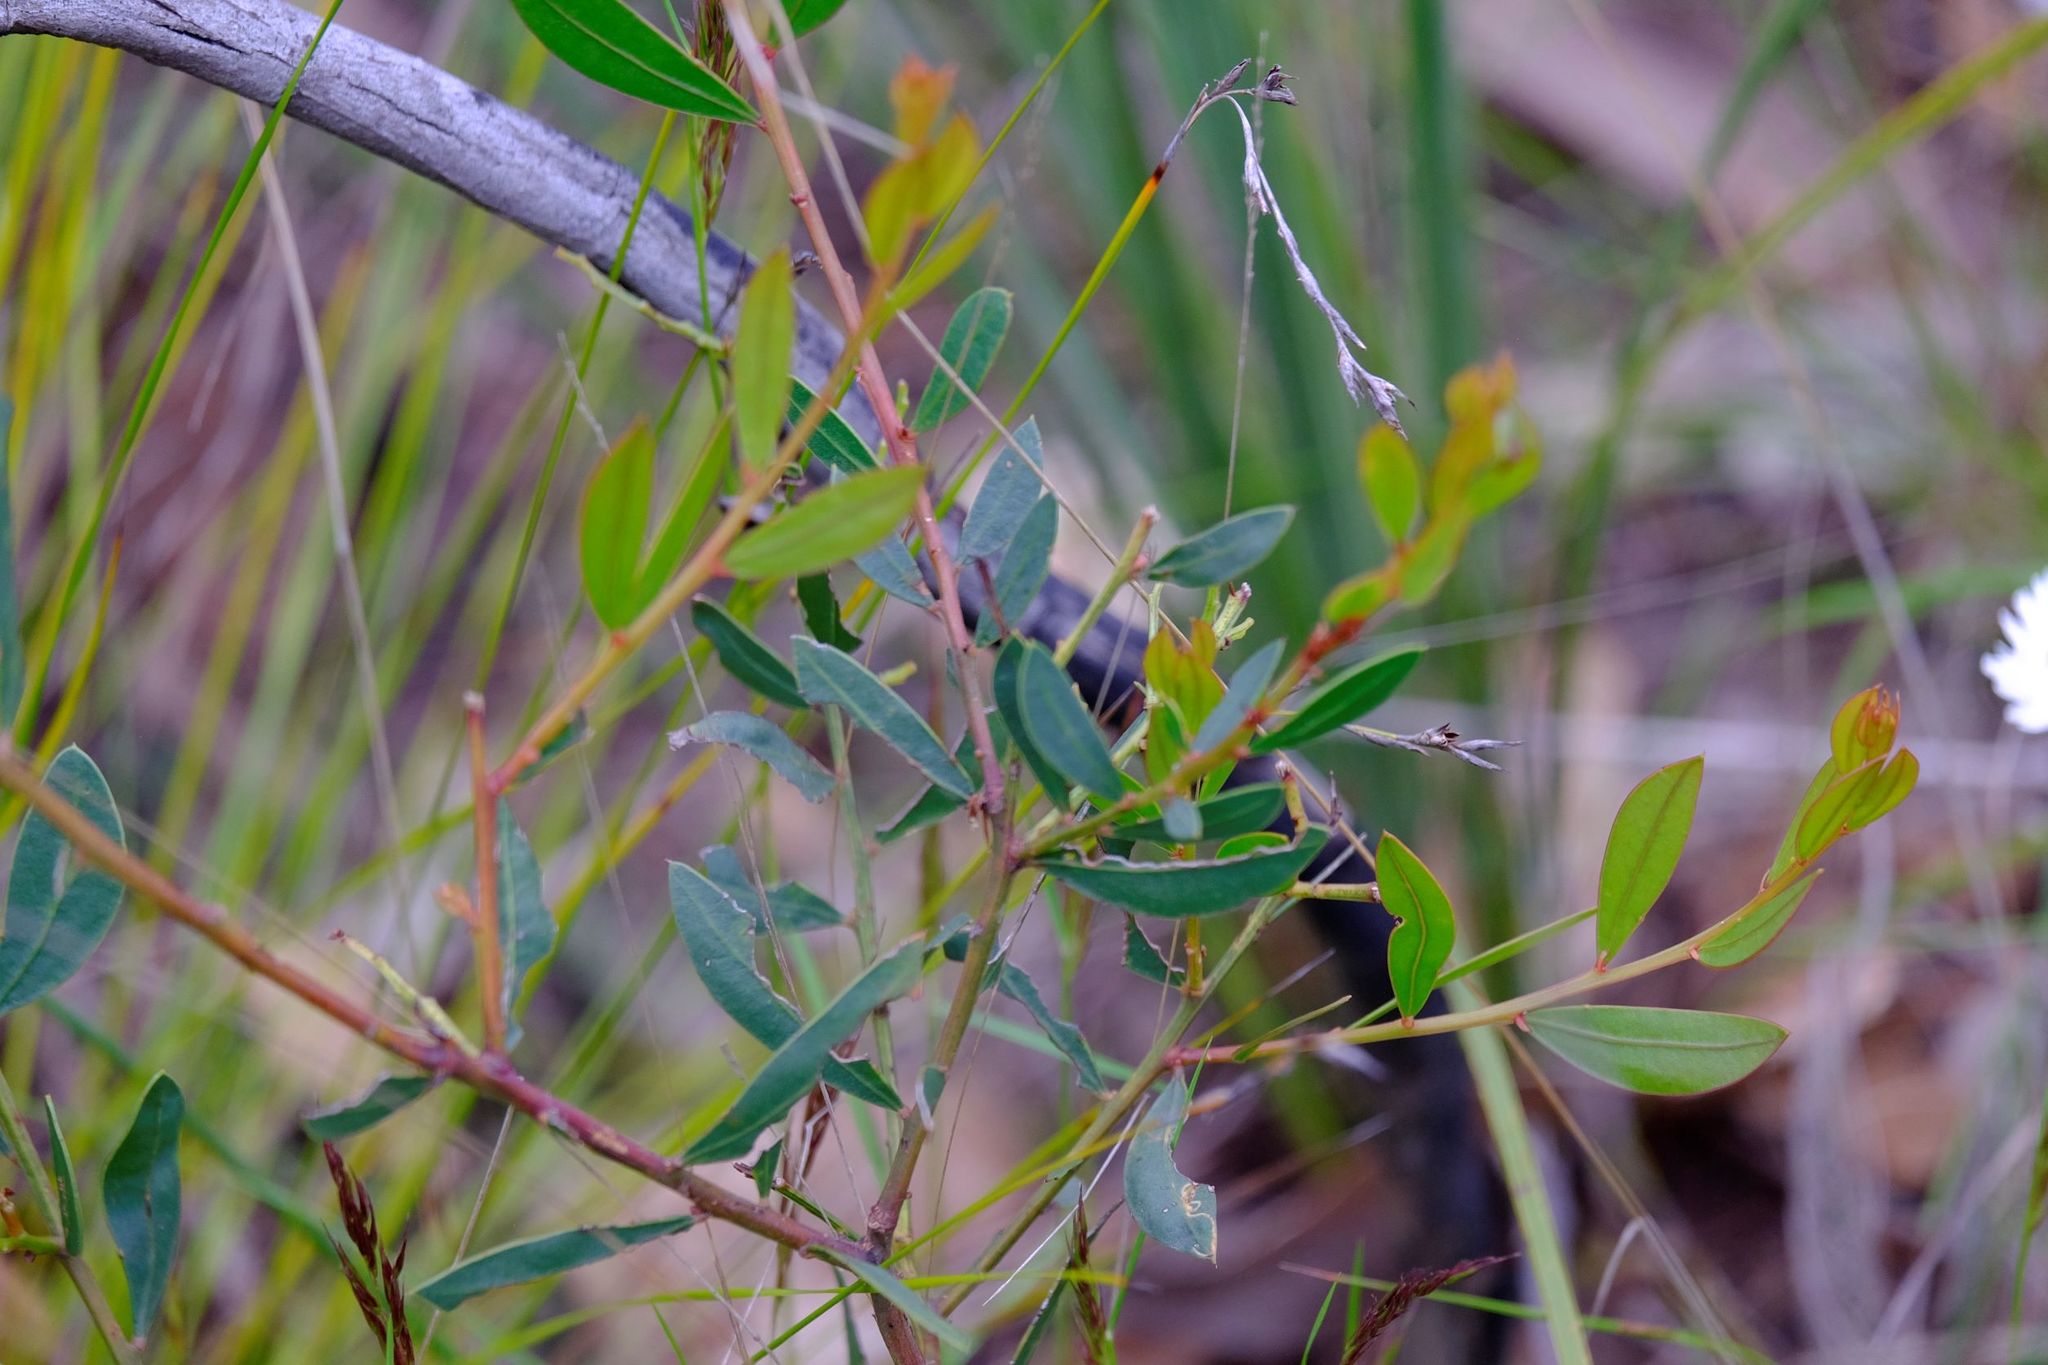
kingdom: Plantae
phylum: Tracheophyta
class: Magnoliopsida
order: Fabales
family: Fabaceae
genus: Acacia
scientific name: Acacia myrtifolia
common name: Myrtle wattle
